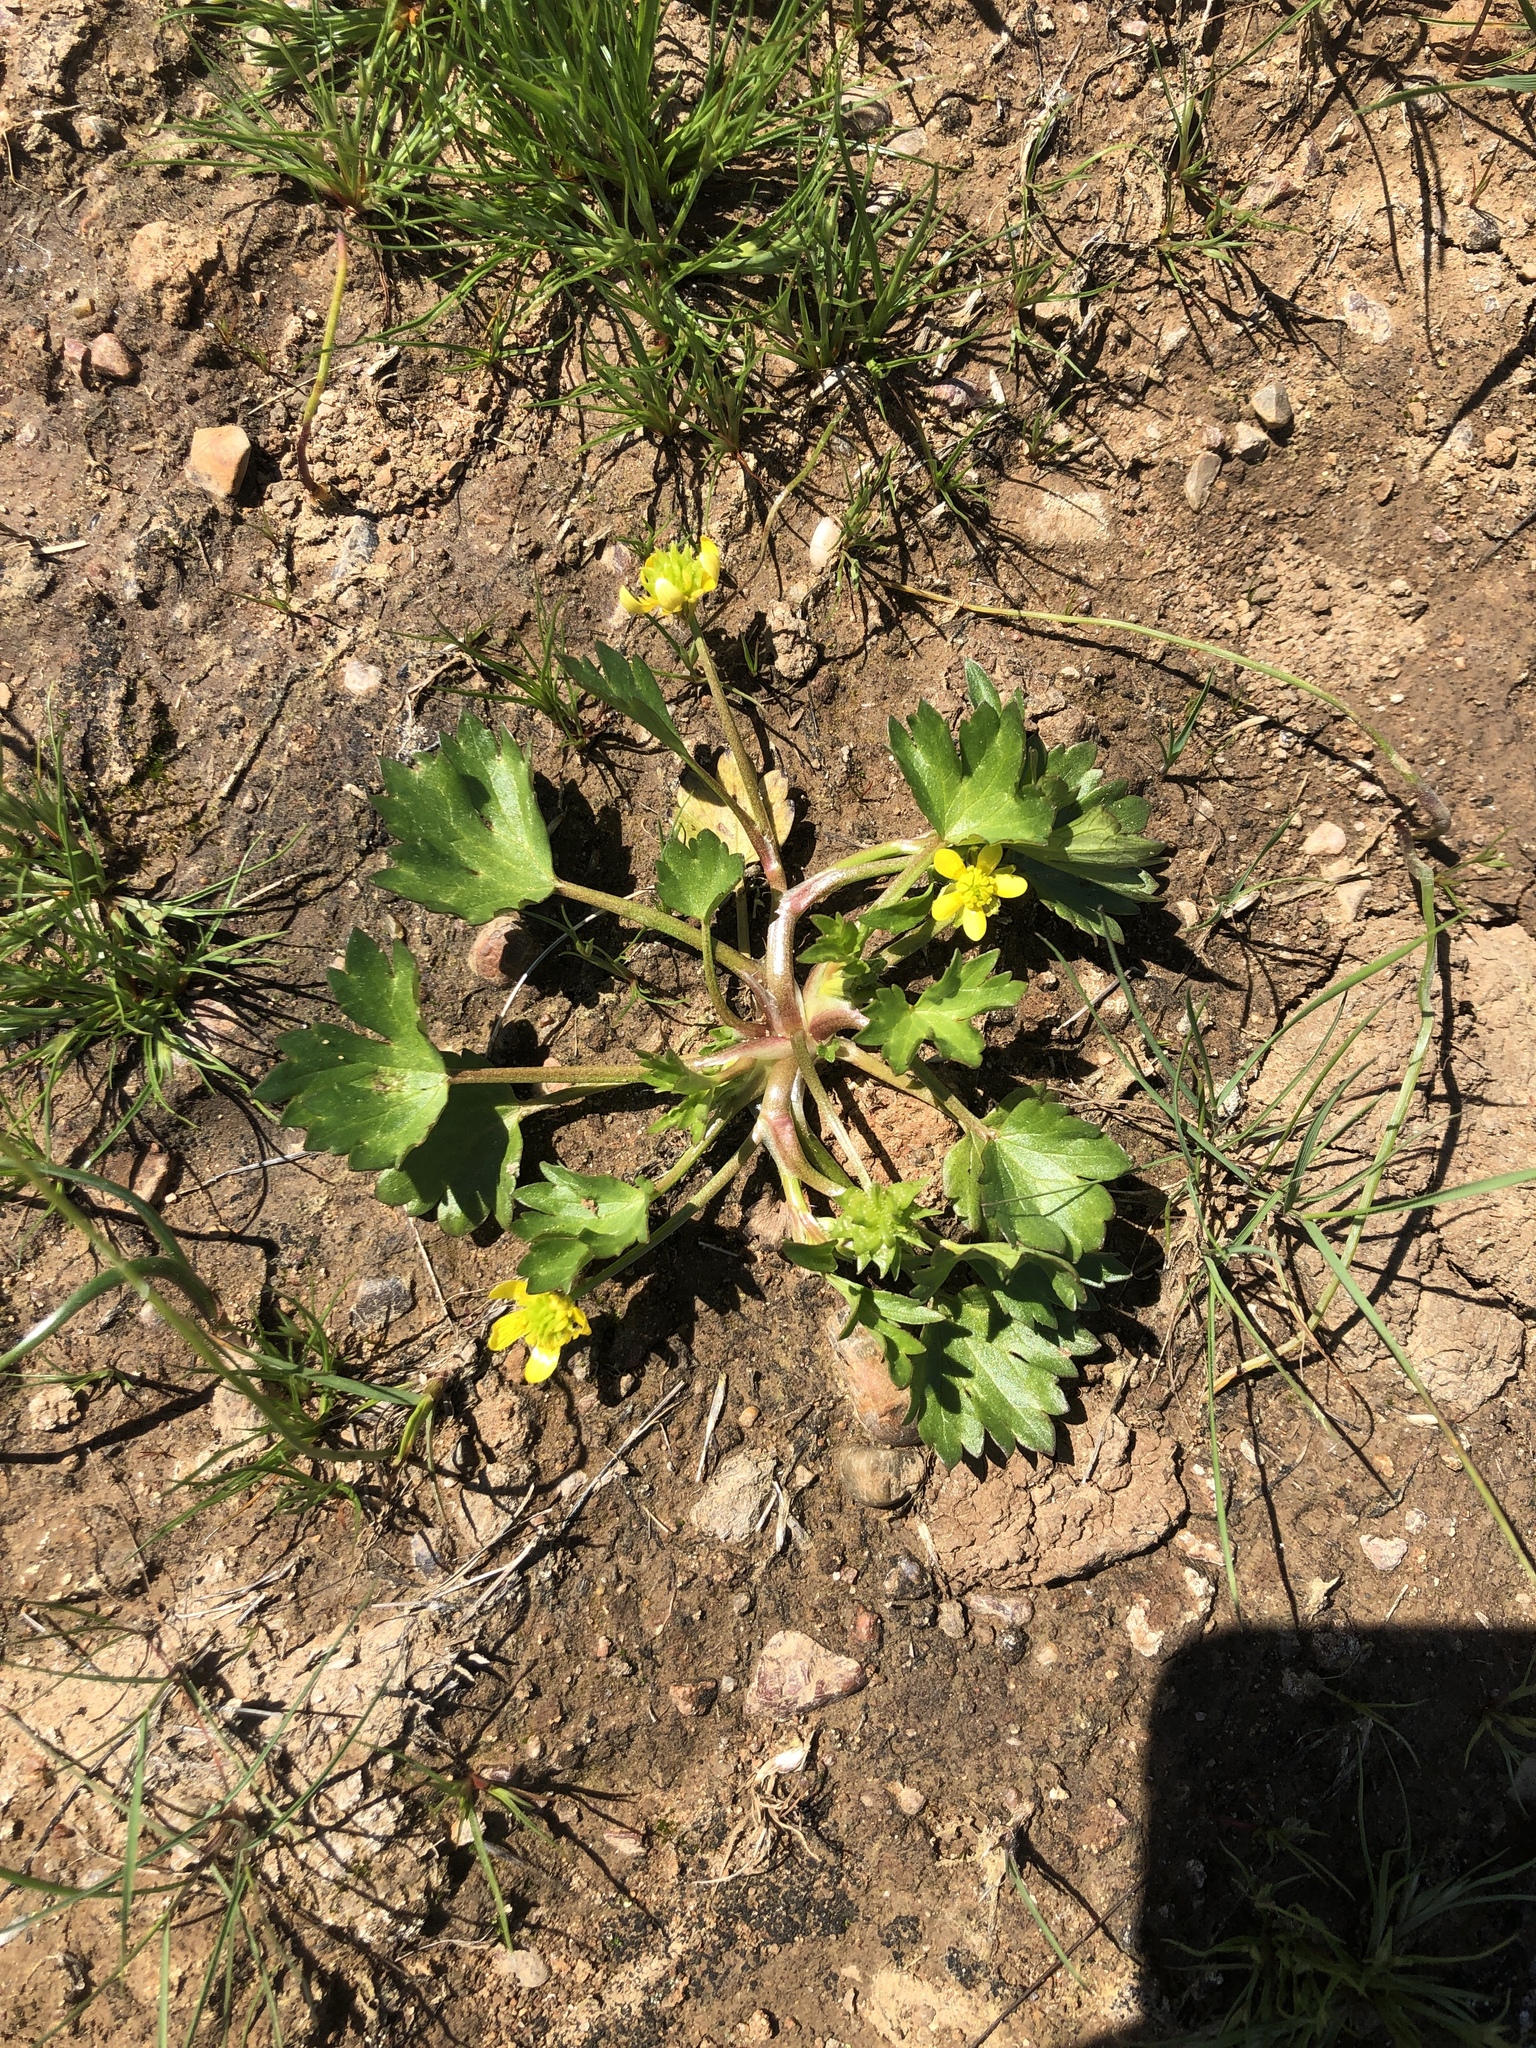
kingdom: Plantae
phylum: Tracheophyta
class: Magnoliopsida
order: Ranunculales
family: Ranunculaceae
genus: Ranunculus
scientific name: Ranunculus muricatus
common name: Rough-fruited buttercup
